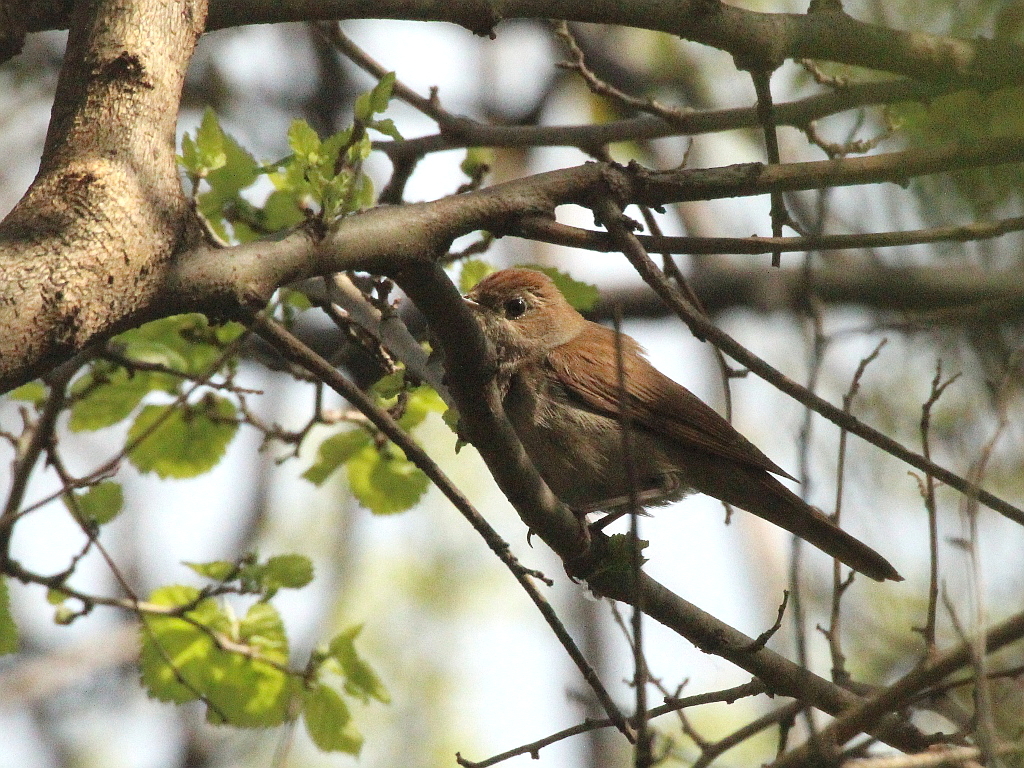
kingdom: Animalia
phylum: Chordata
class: Aves
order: Passeriformes
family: Muscicapidae
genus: Luscinia
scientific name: Luscinia megarhynchos
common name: Common nightingale
